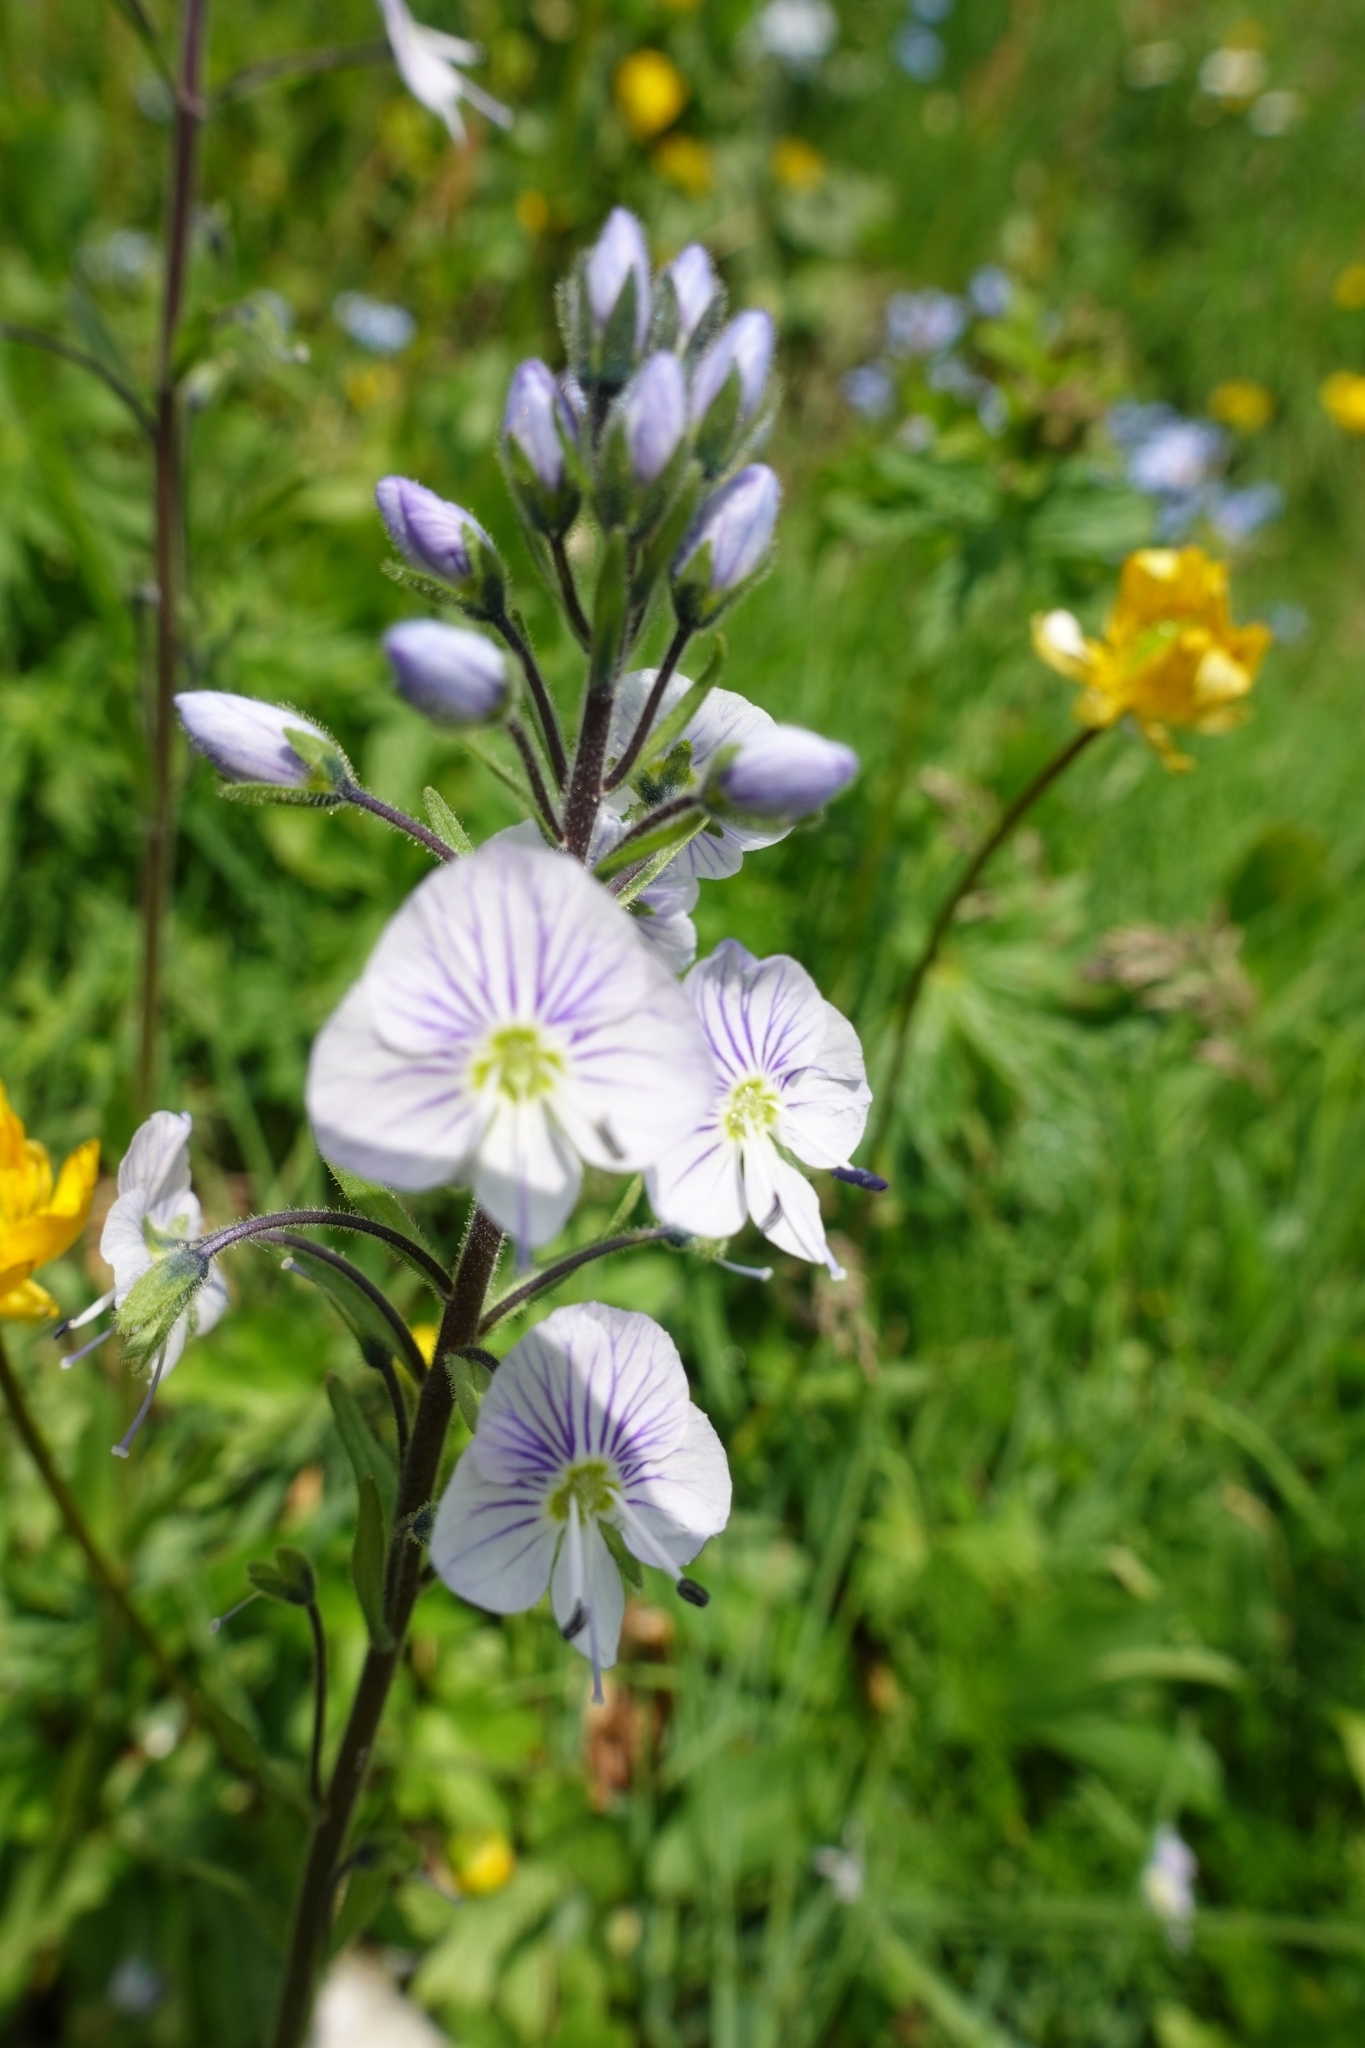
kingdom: Plantae
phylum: Tracheophyta
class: Magnoliopsida
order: Lamiales
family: Plantaginaceae
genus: Veronica
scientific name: Veronica gentianoides
